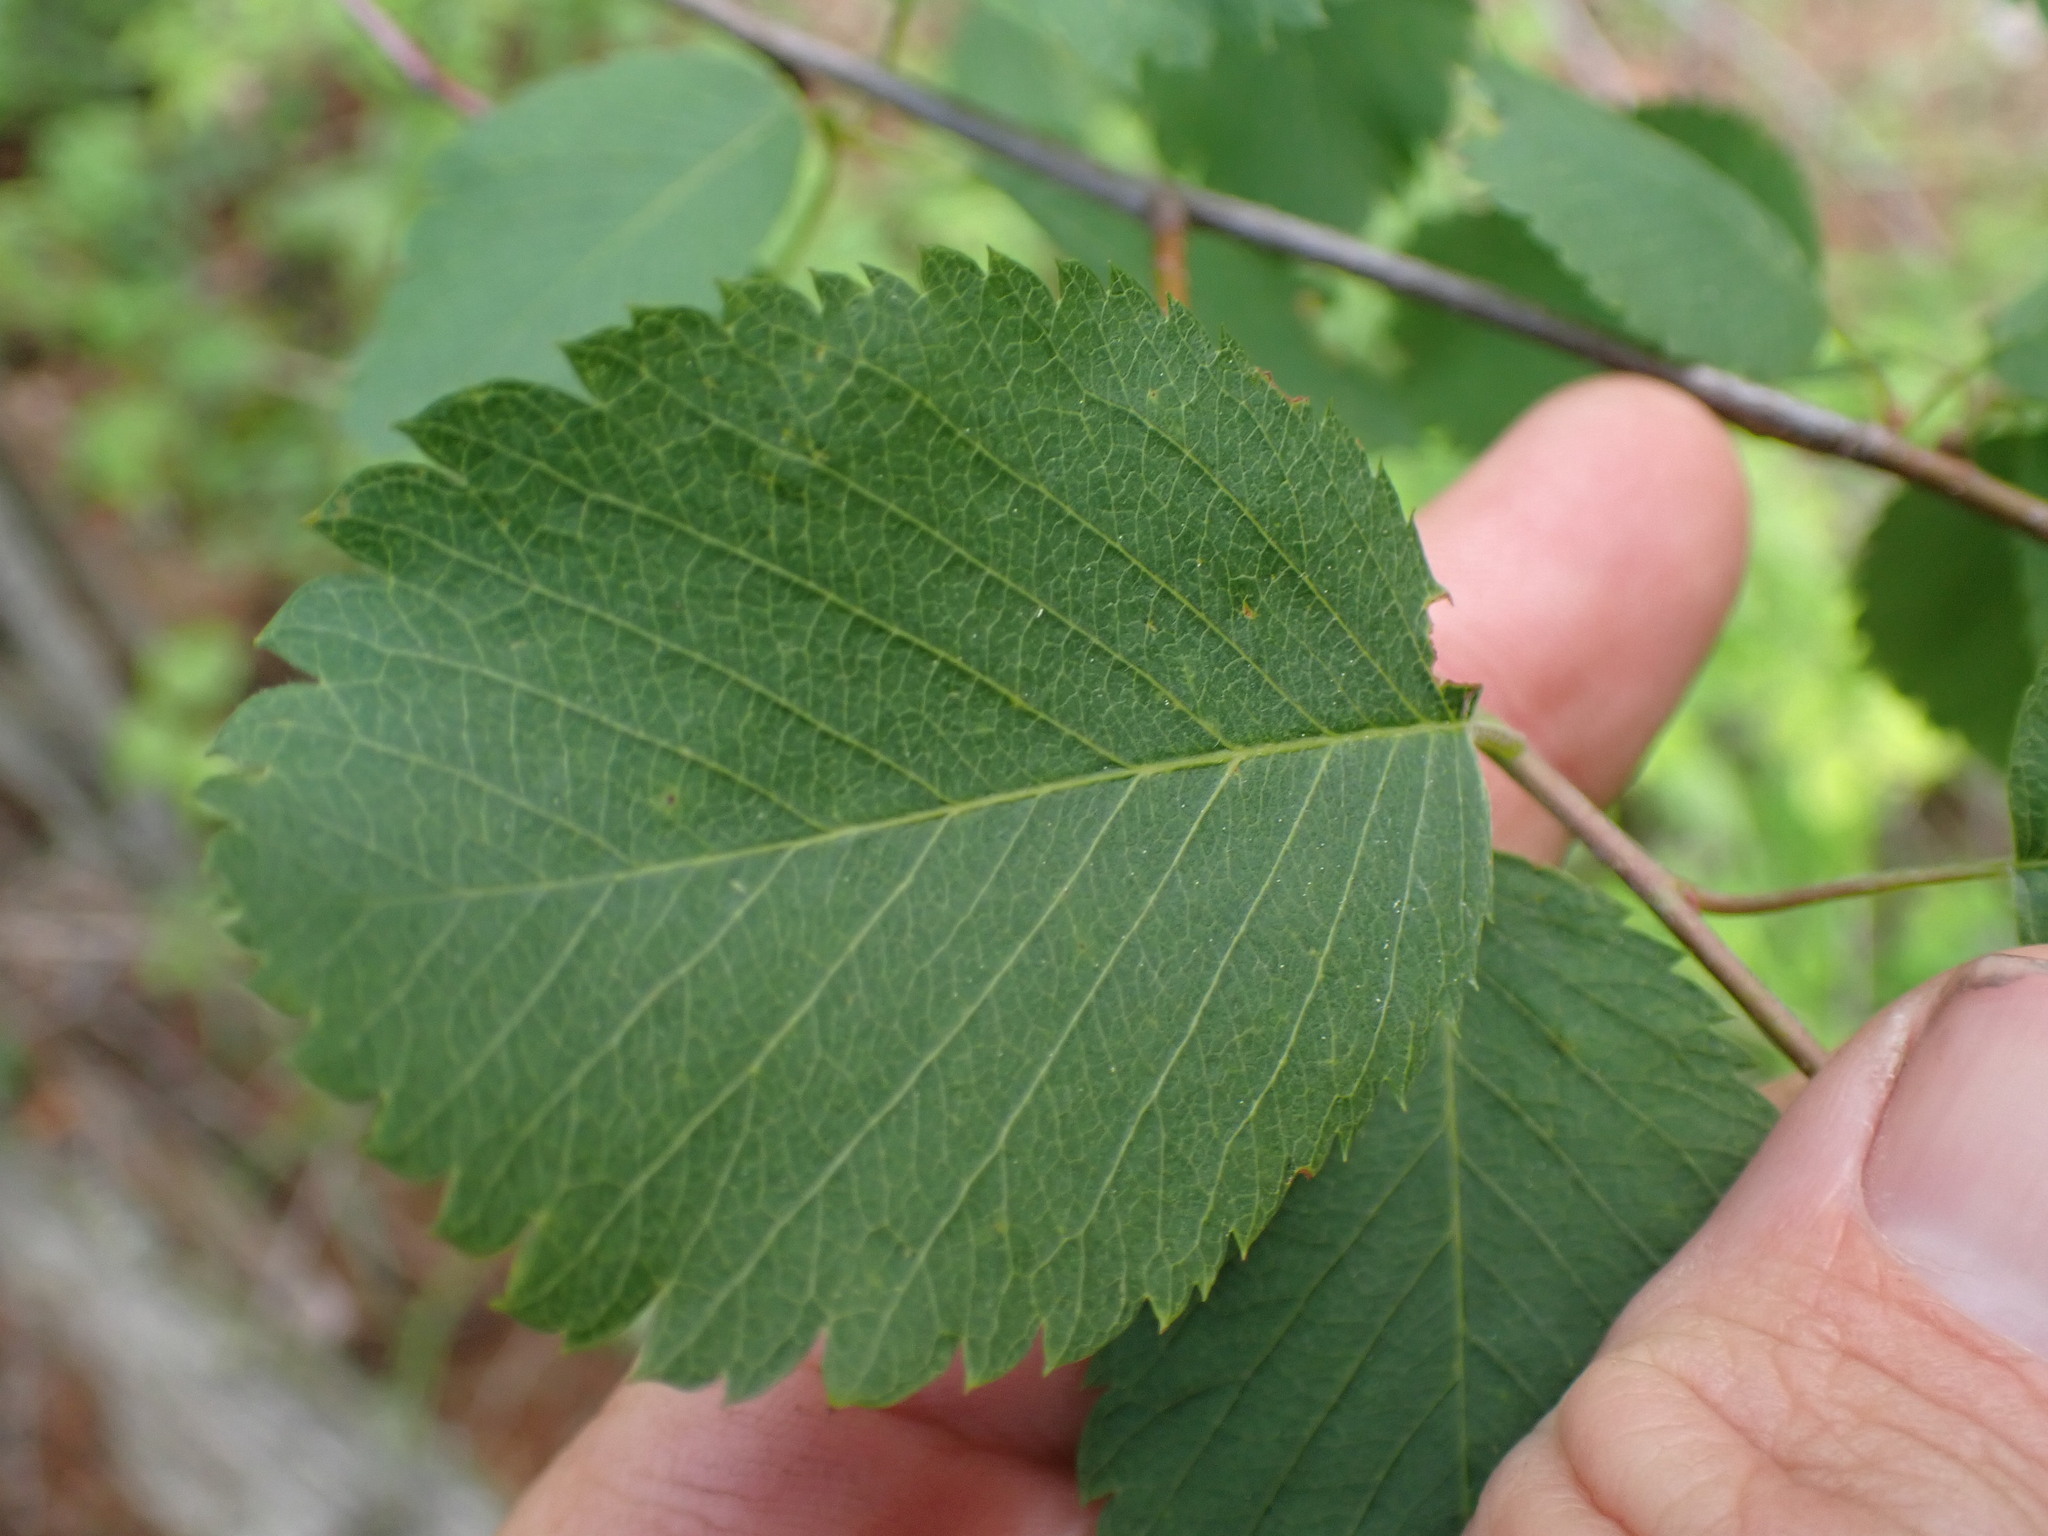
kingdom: Plantae
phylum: Tracheophyta
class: Magnoliopsida
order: Rosales
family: Rosaceae
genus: Amelanchier
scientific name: Amelanchier alnifolia
